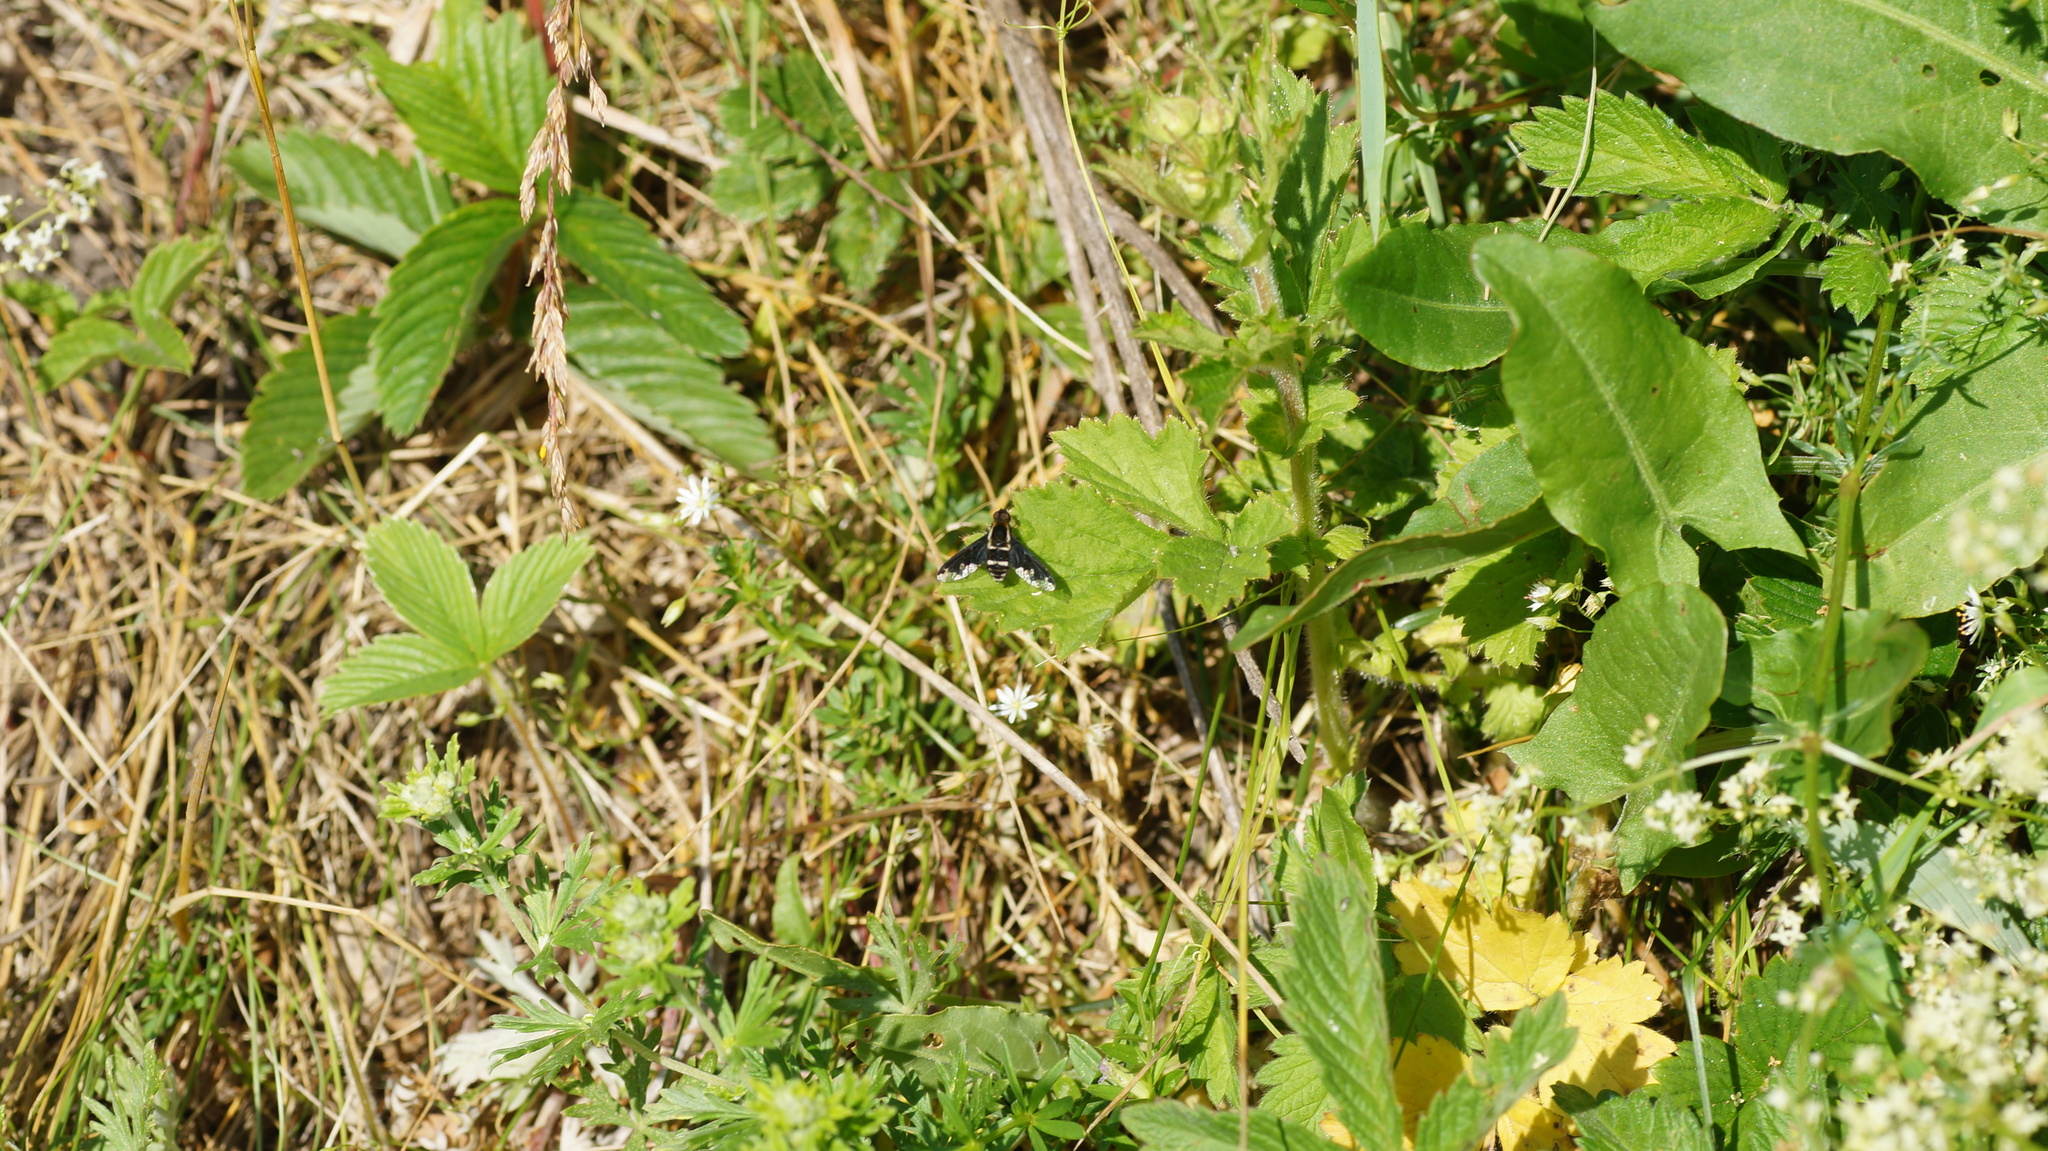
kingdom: Animalia
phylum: Arthropoda
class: Insecta
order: Diptera
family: Bombyliidae
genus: Hemipenthes
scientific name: Hemipenthes maura
